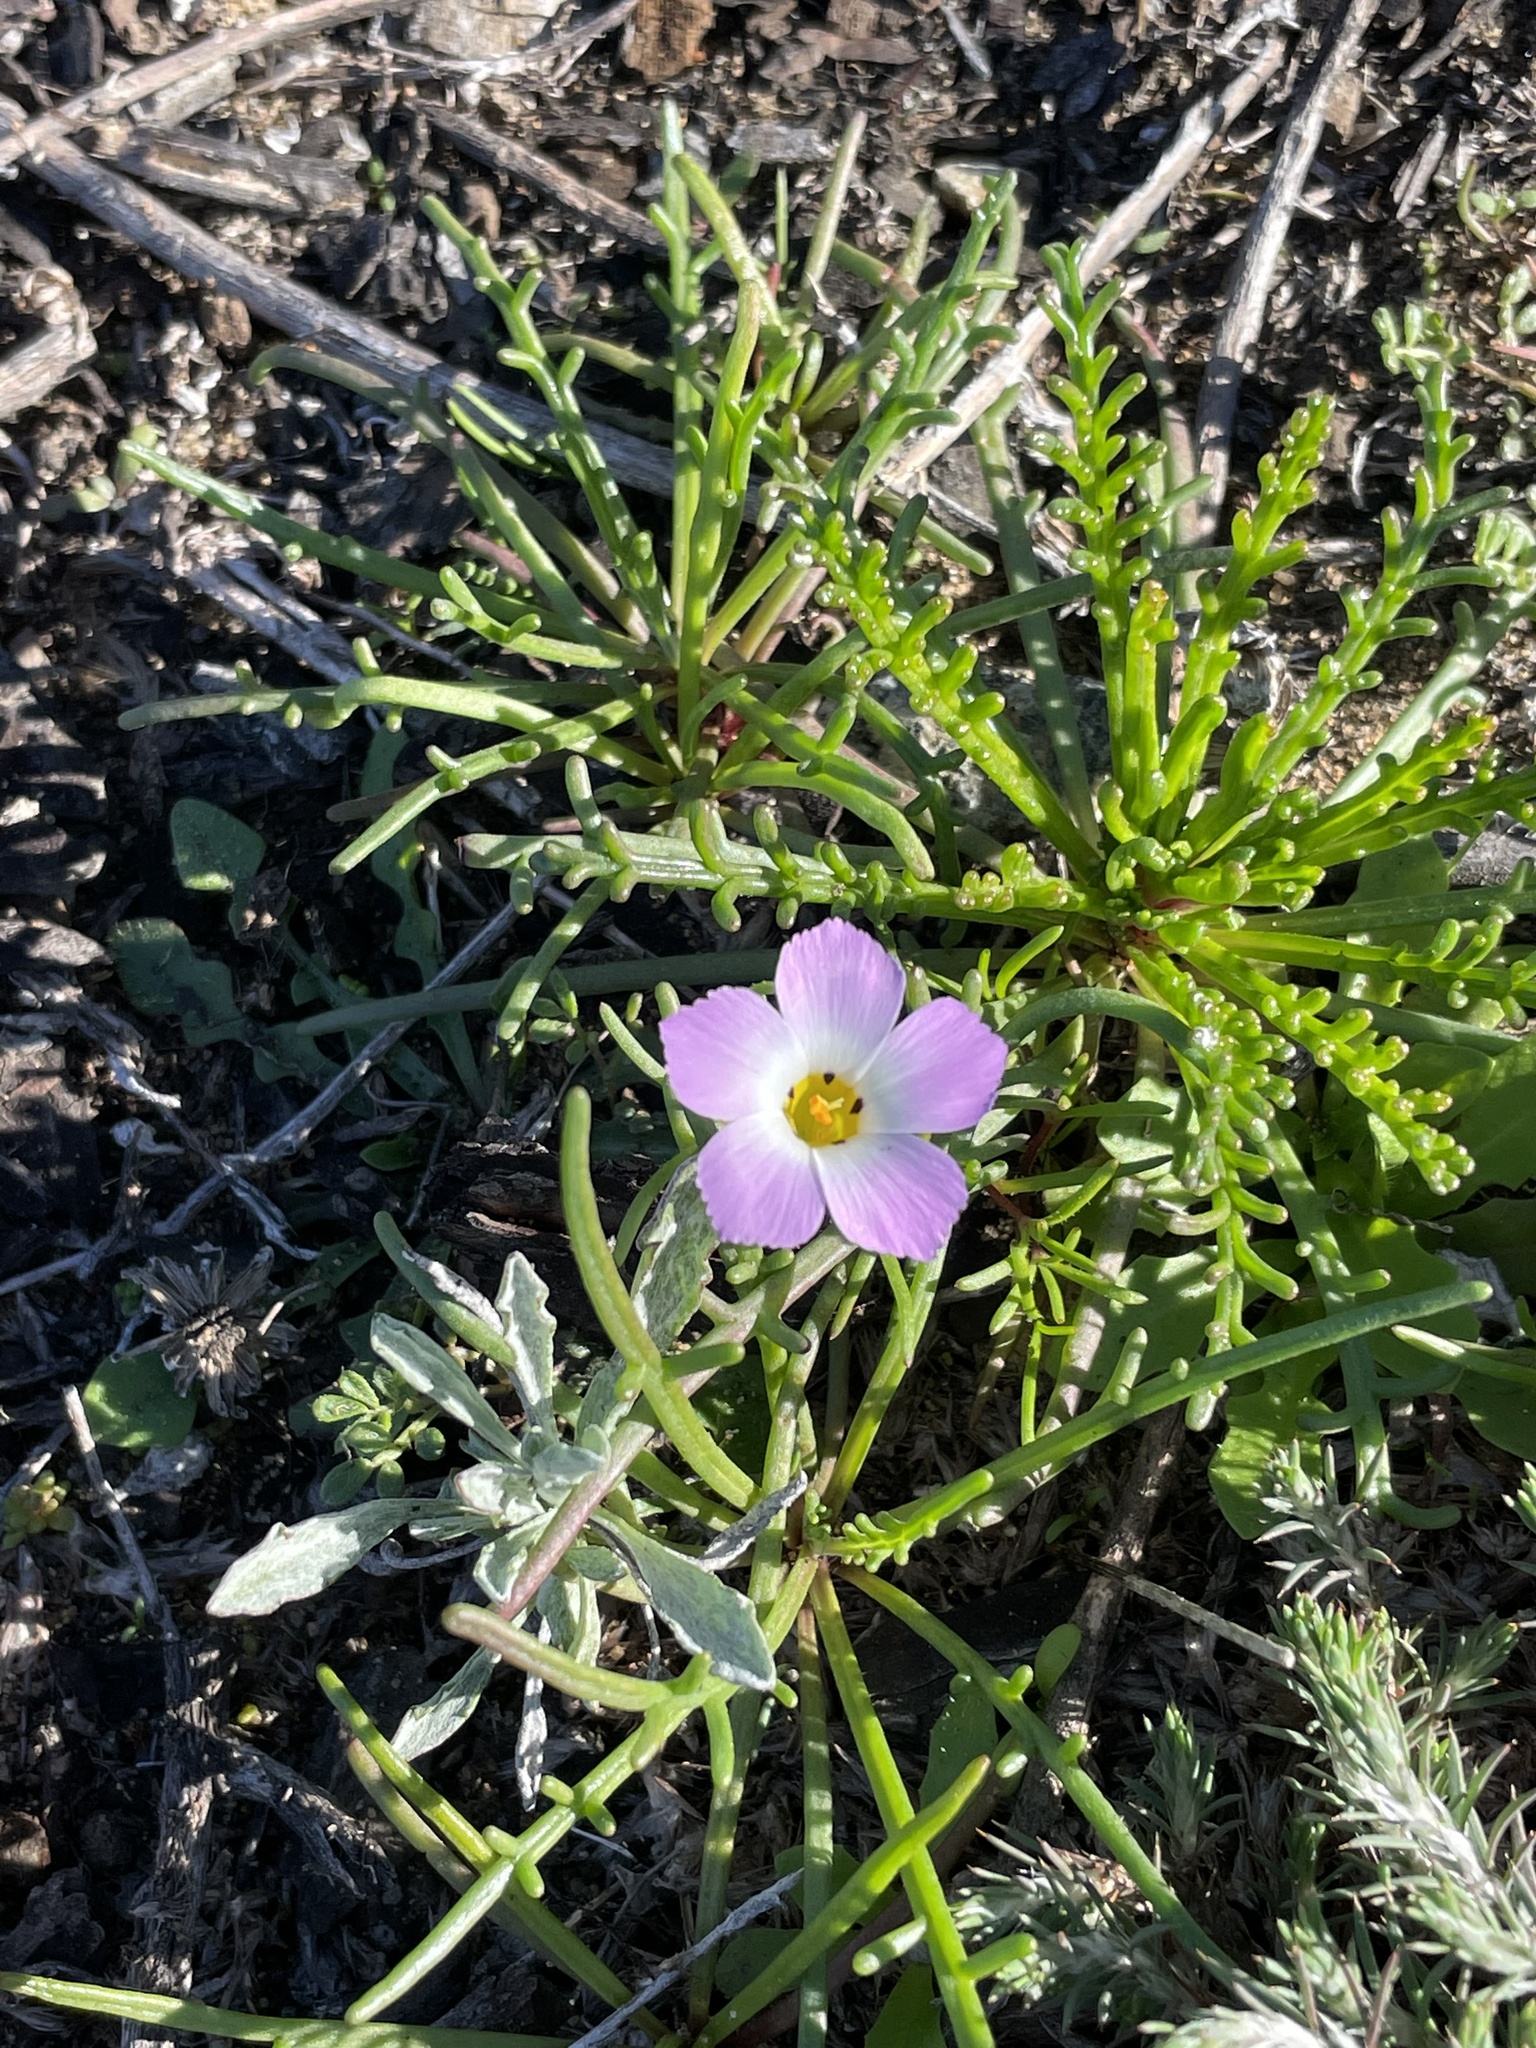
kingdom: Plantae
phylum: Tracheophyta
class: Magnoliopsida
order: Ericales
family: Polemoniaceae
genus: Linanthus
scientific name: Linanthus dianthiflorus
